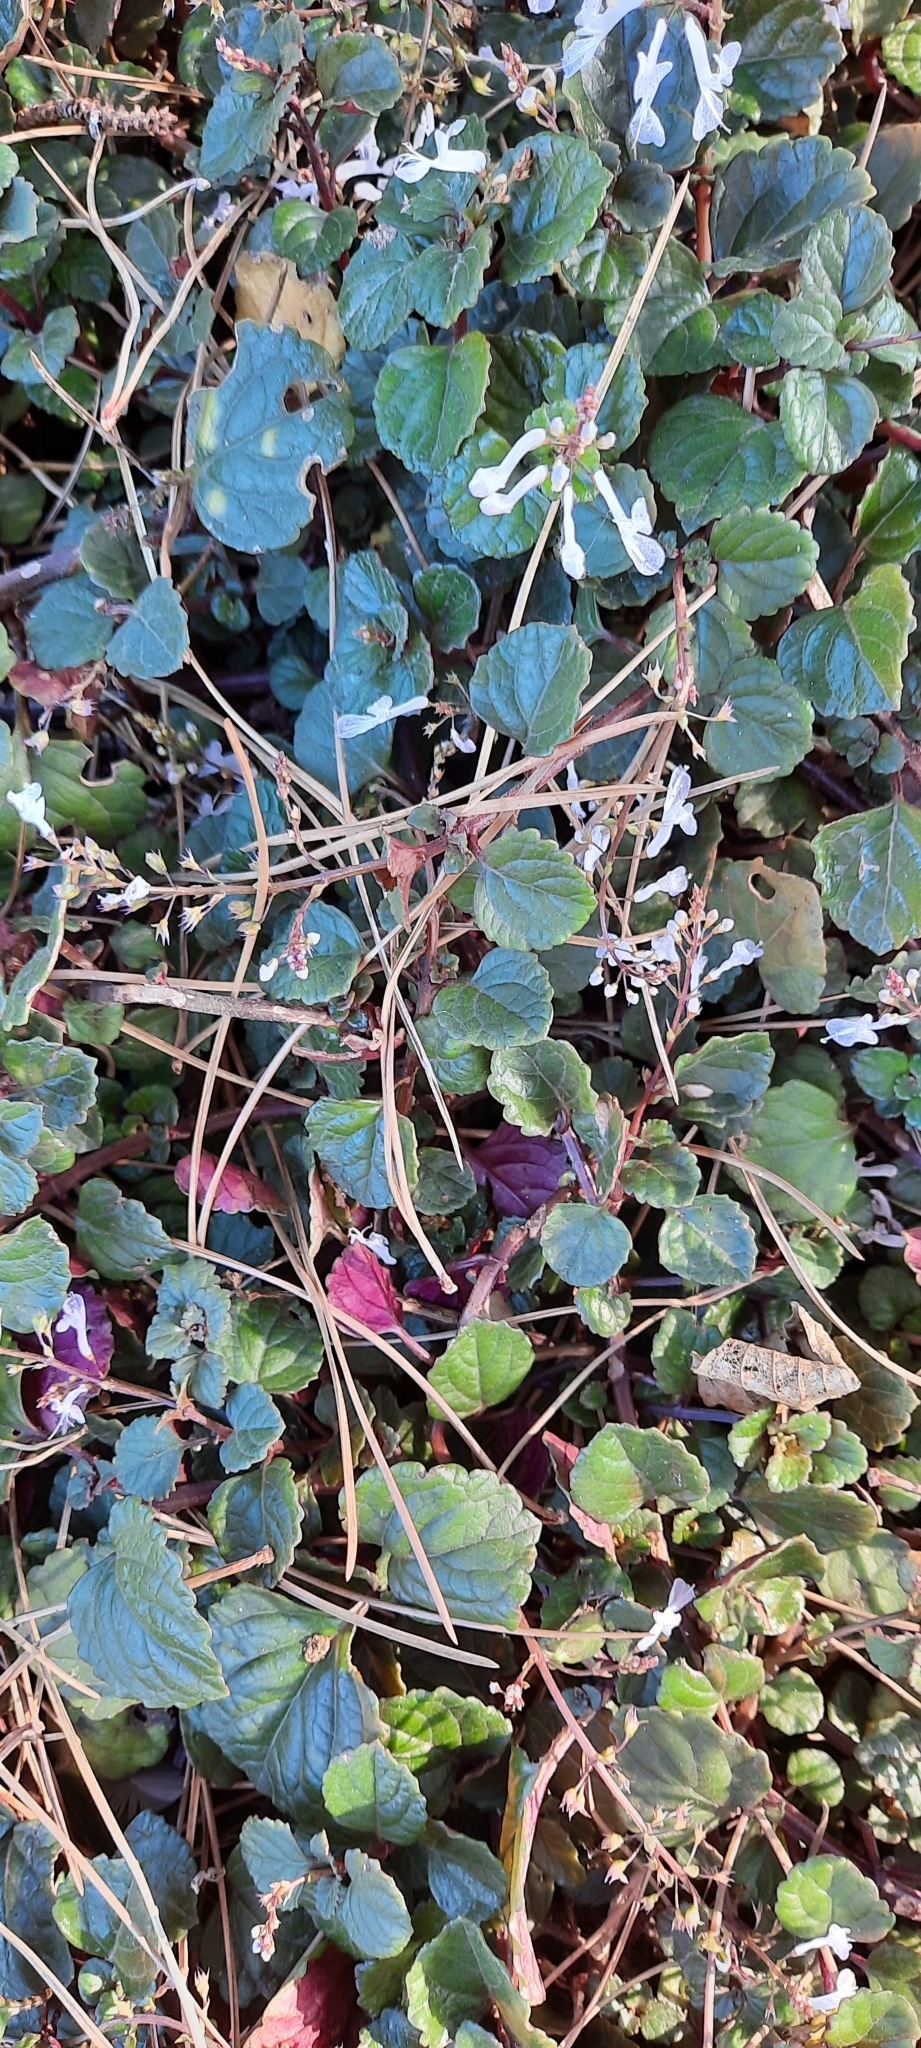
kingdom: Plantae
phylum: Tracheophyta
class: Magnoliopsida
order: Lamiales
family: Lamiaceae
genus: Plectranthus
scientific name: Plectranthus verticillatus
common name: Whorled plectranthus
